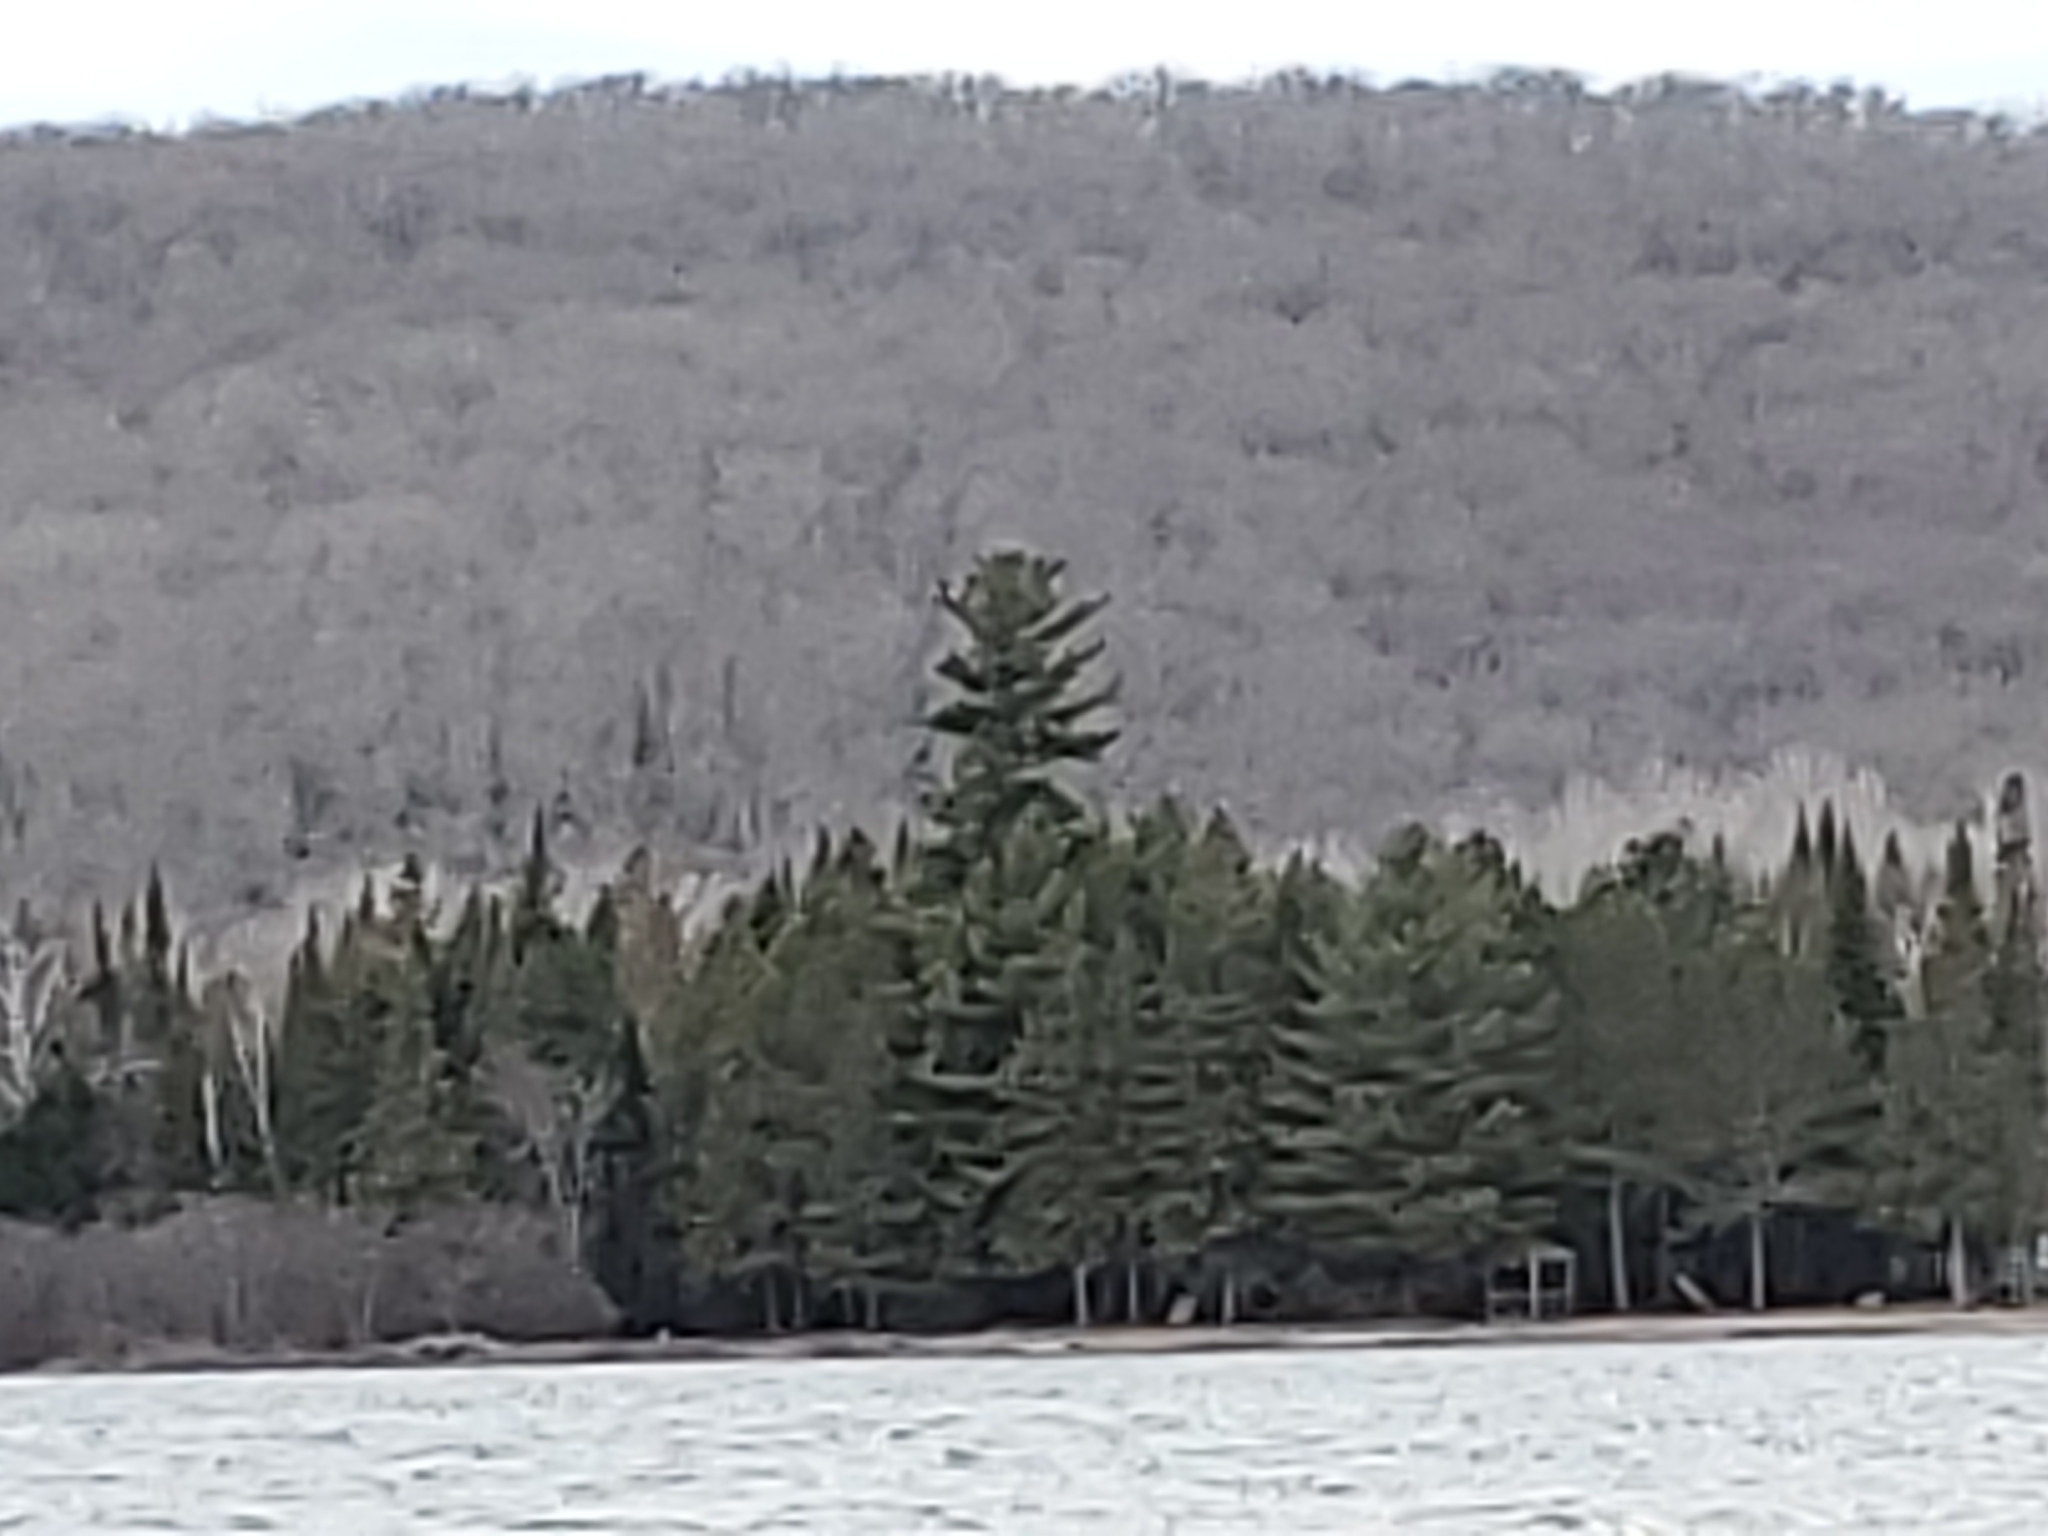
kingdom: Plantae
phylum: Tracheophyta
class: Pinopsida
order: Pinales
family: Pinaceae
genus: Pinus
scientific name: Pinus strobus
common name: Weymouth pine
